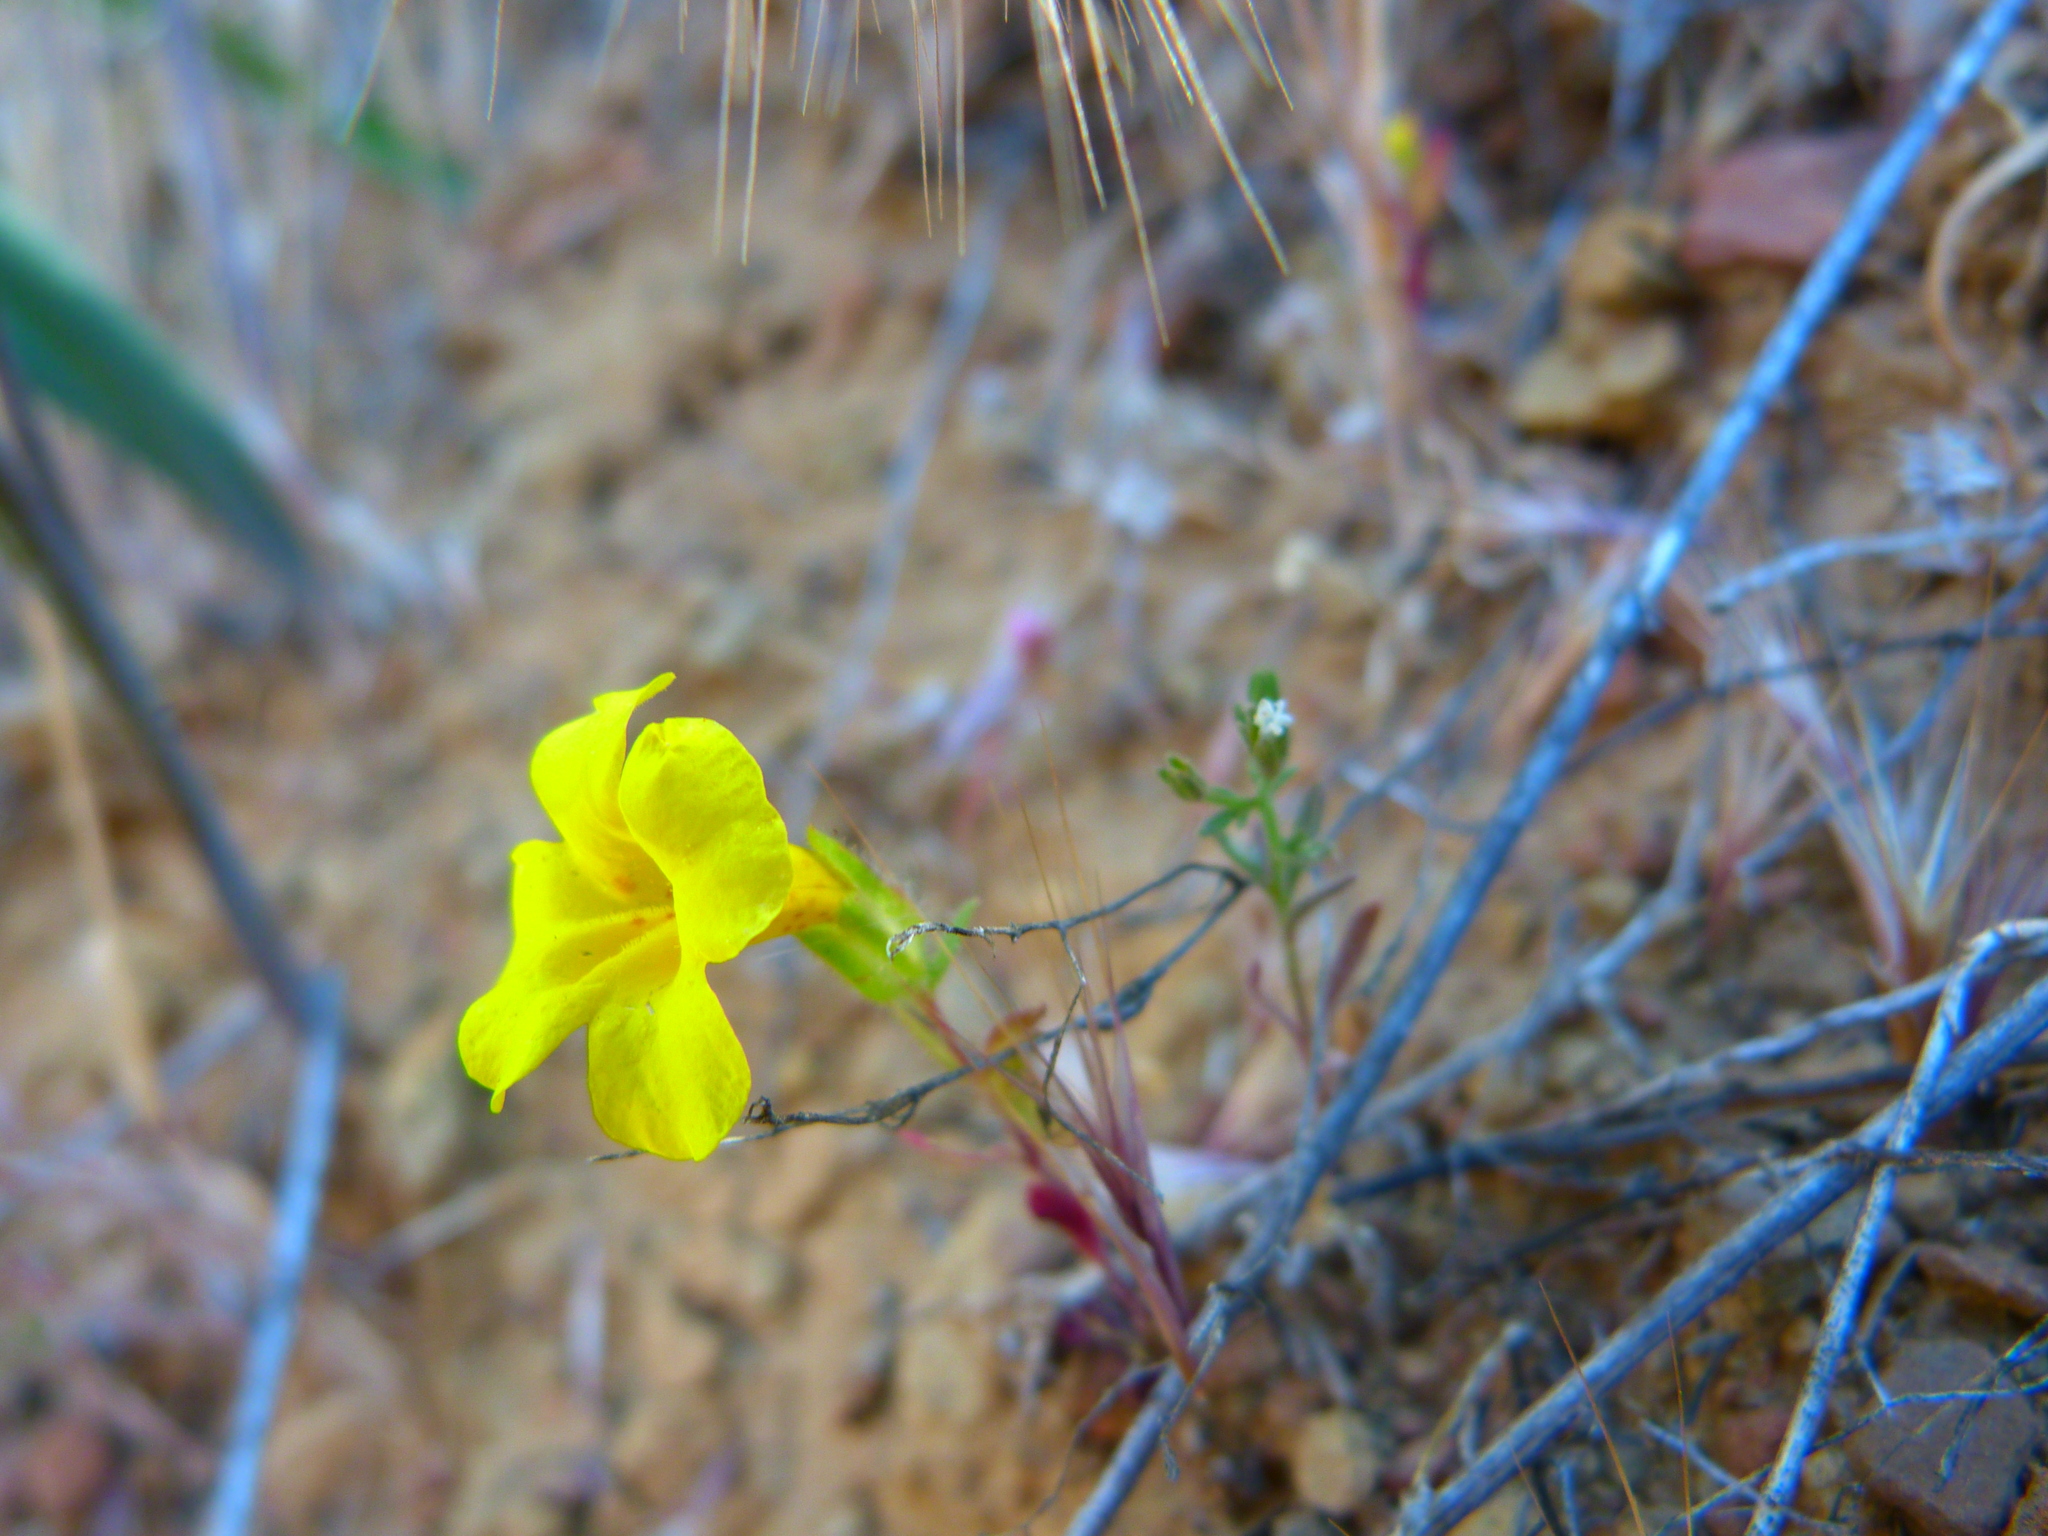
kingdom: Plantae
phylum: Tracheophyta
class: Magnoliopsida
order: Lamiales
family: Phrymaceae
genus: Diplacus
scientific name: Diplacus brevipes
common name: Wide-throat yellow monkey-flower
